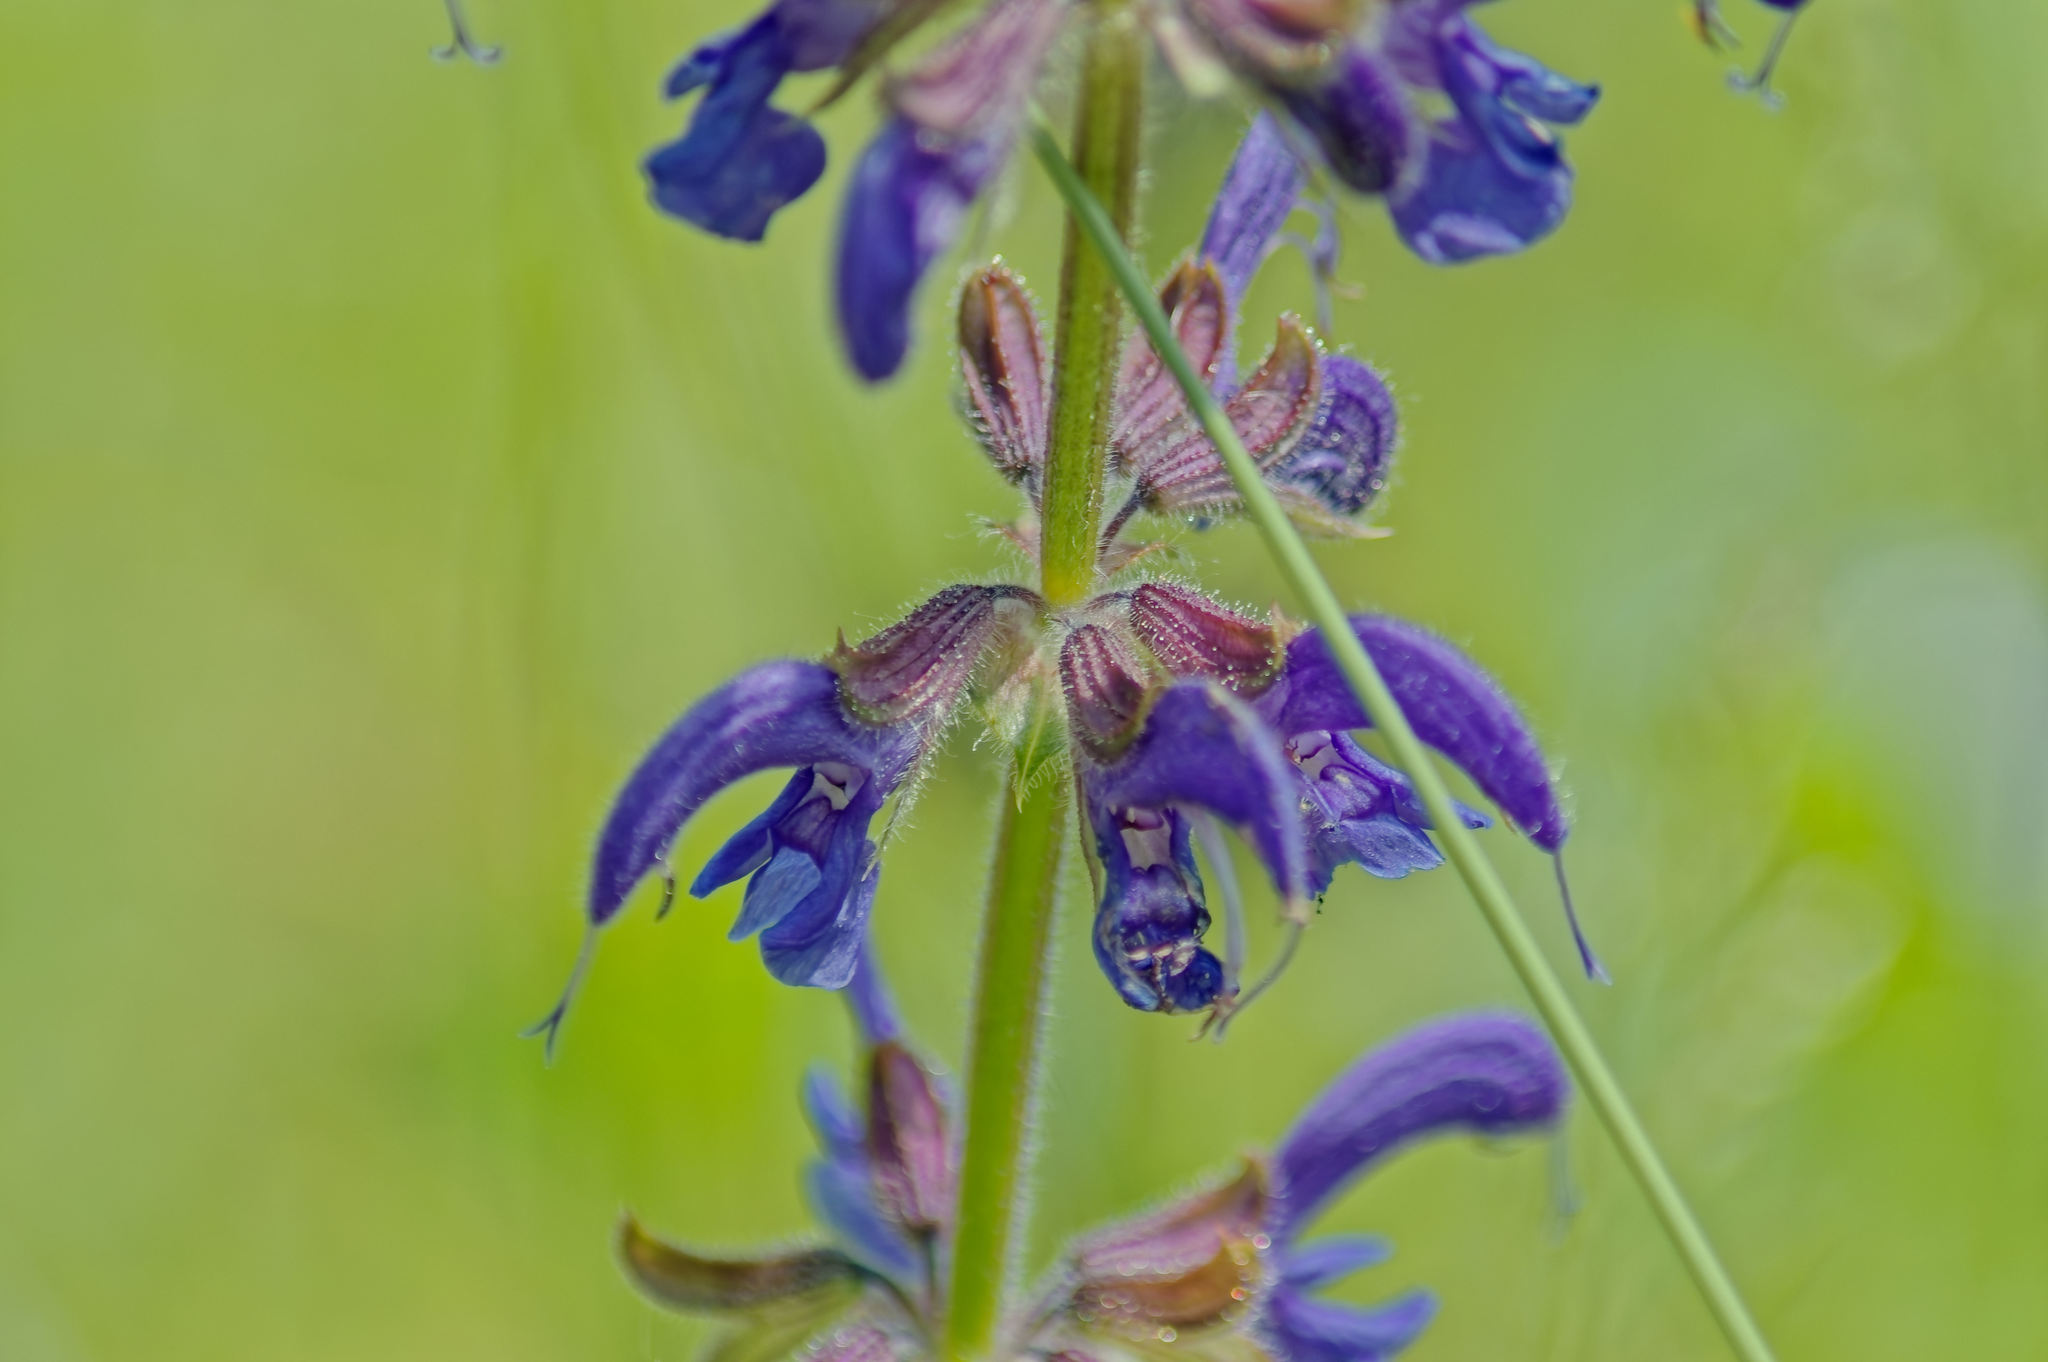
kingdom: Plantae
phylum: Tracheophyta
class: Magnoliopsida
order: Lamiales
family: Lamiaceae
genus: Salvia
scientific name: Salvia pratensis
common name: Meadow sage
